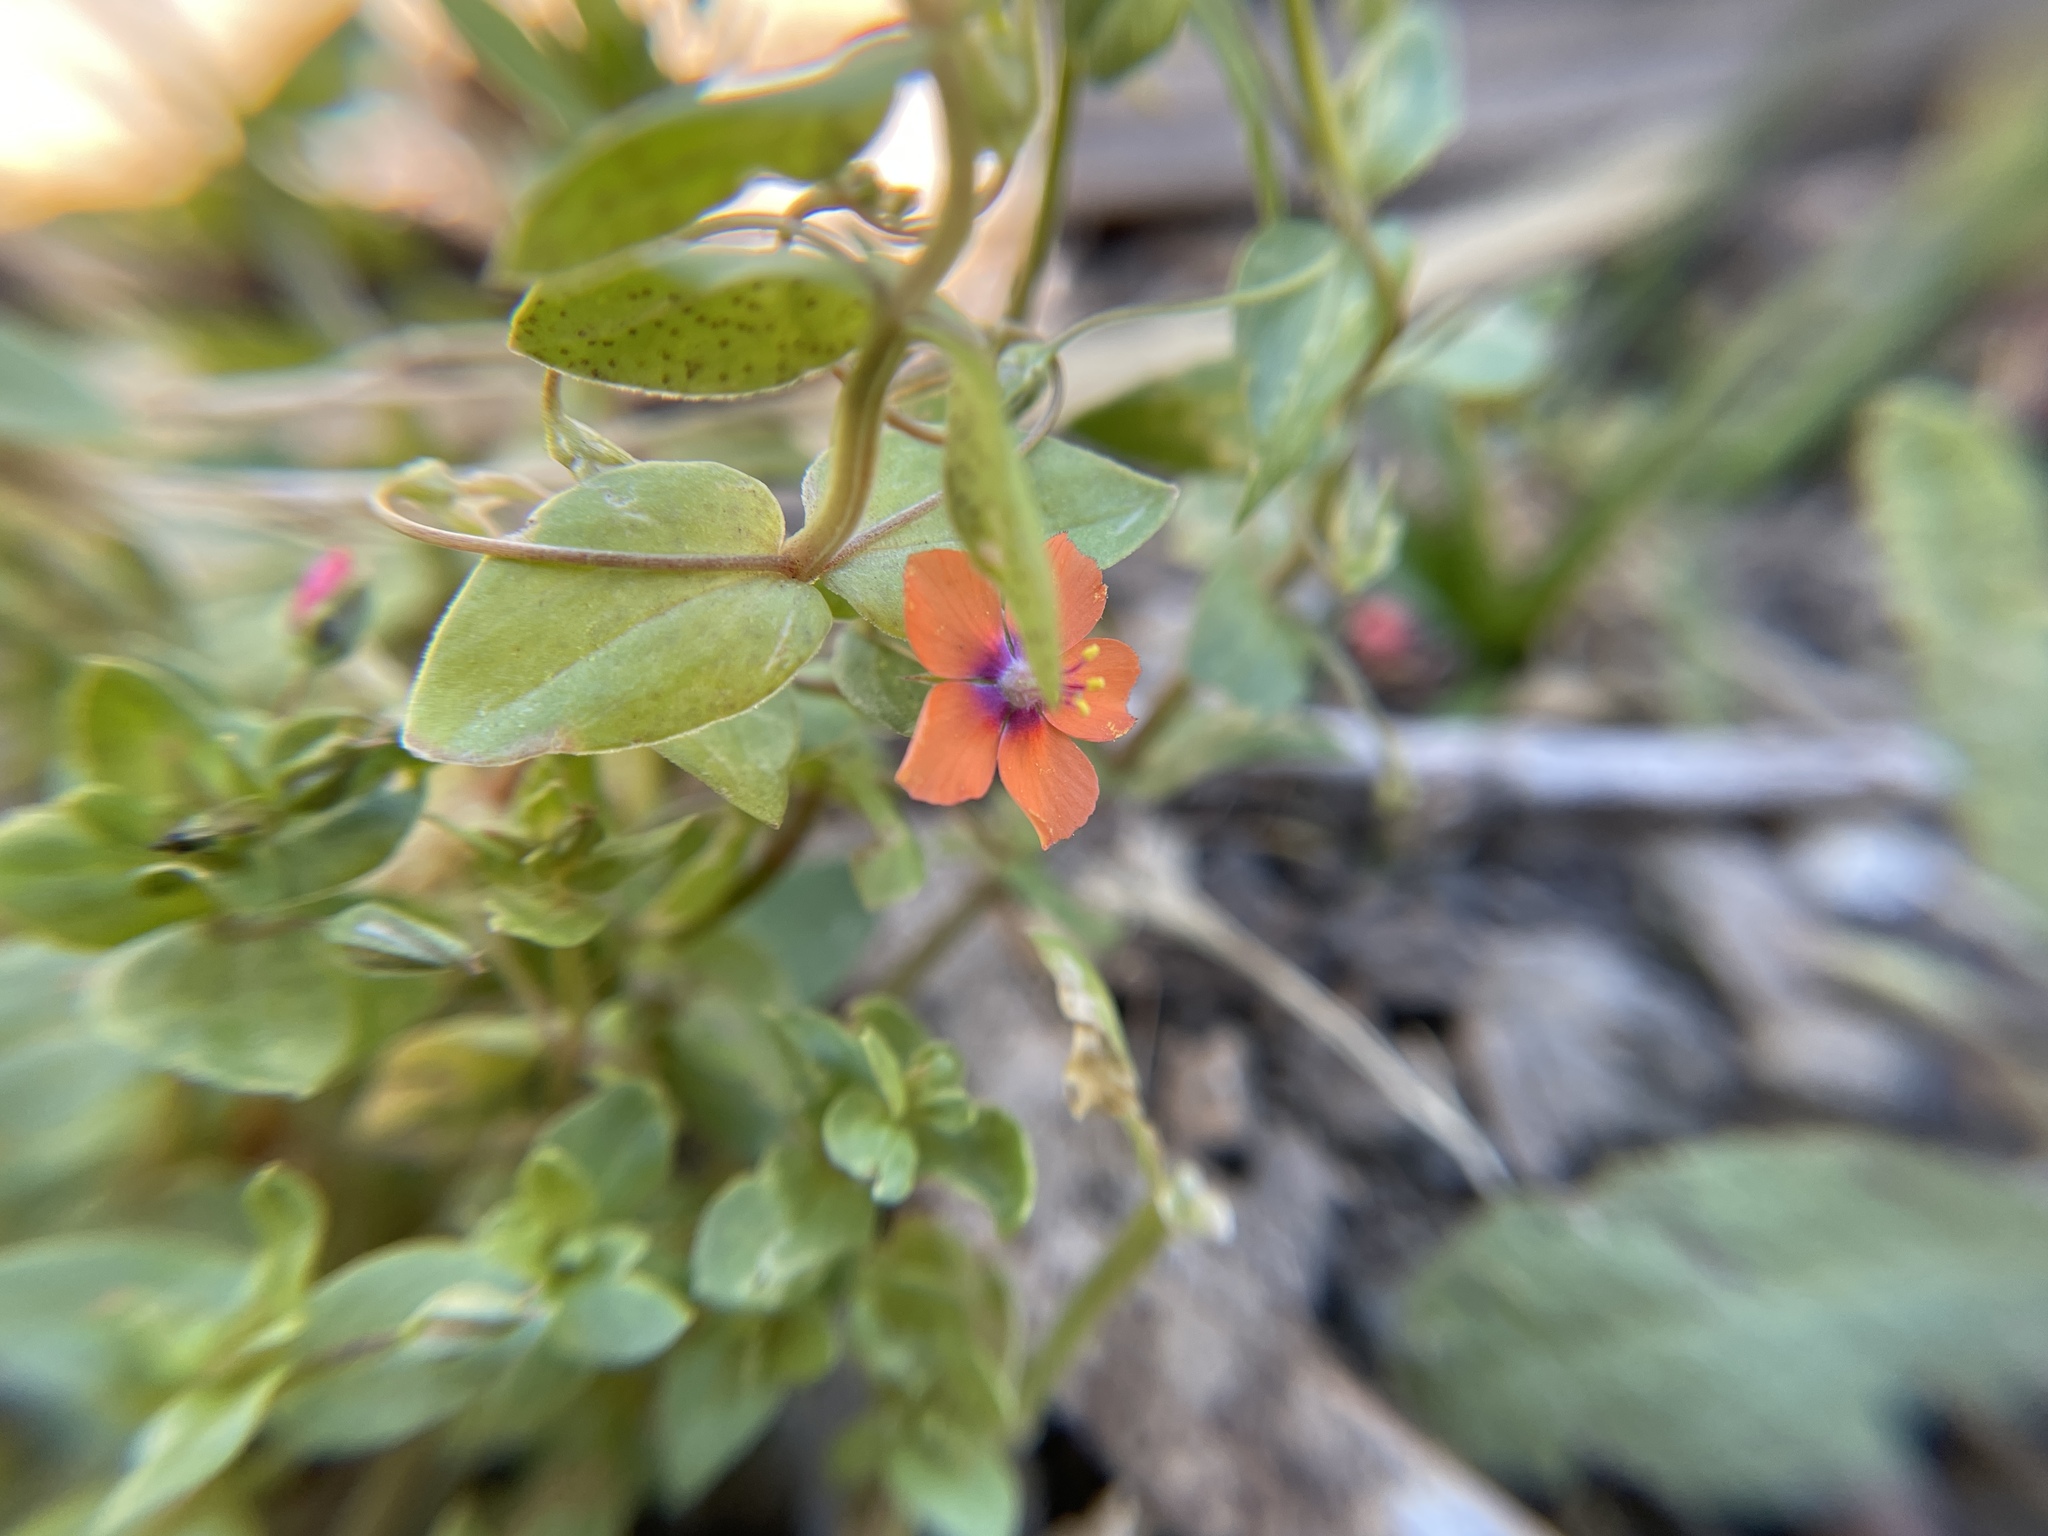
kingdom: Plantae
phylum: Tracheophyta
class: Magnoliopsida
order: Ericales
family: Primulaceae
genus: Lysimachia
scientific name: Lysimachia arvensis
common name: Scarlet pimpernel
